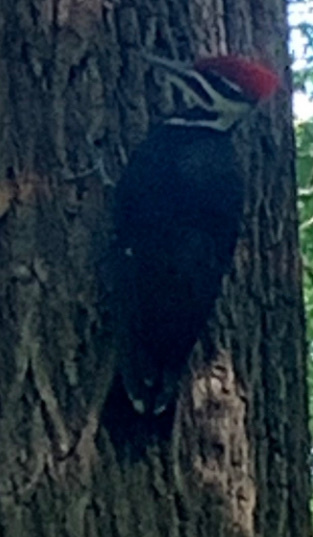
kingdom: Animalia
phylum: Chordata
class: Aves
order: Piciformes
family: Picidae
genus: Dryocopus
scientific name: Dryocopus pileatus
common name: Pileated woodpecker
